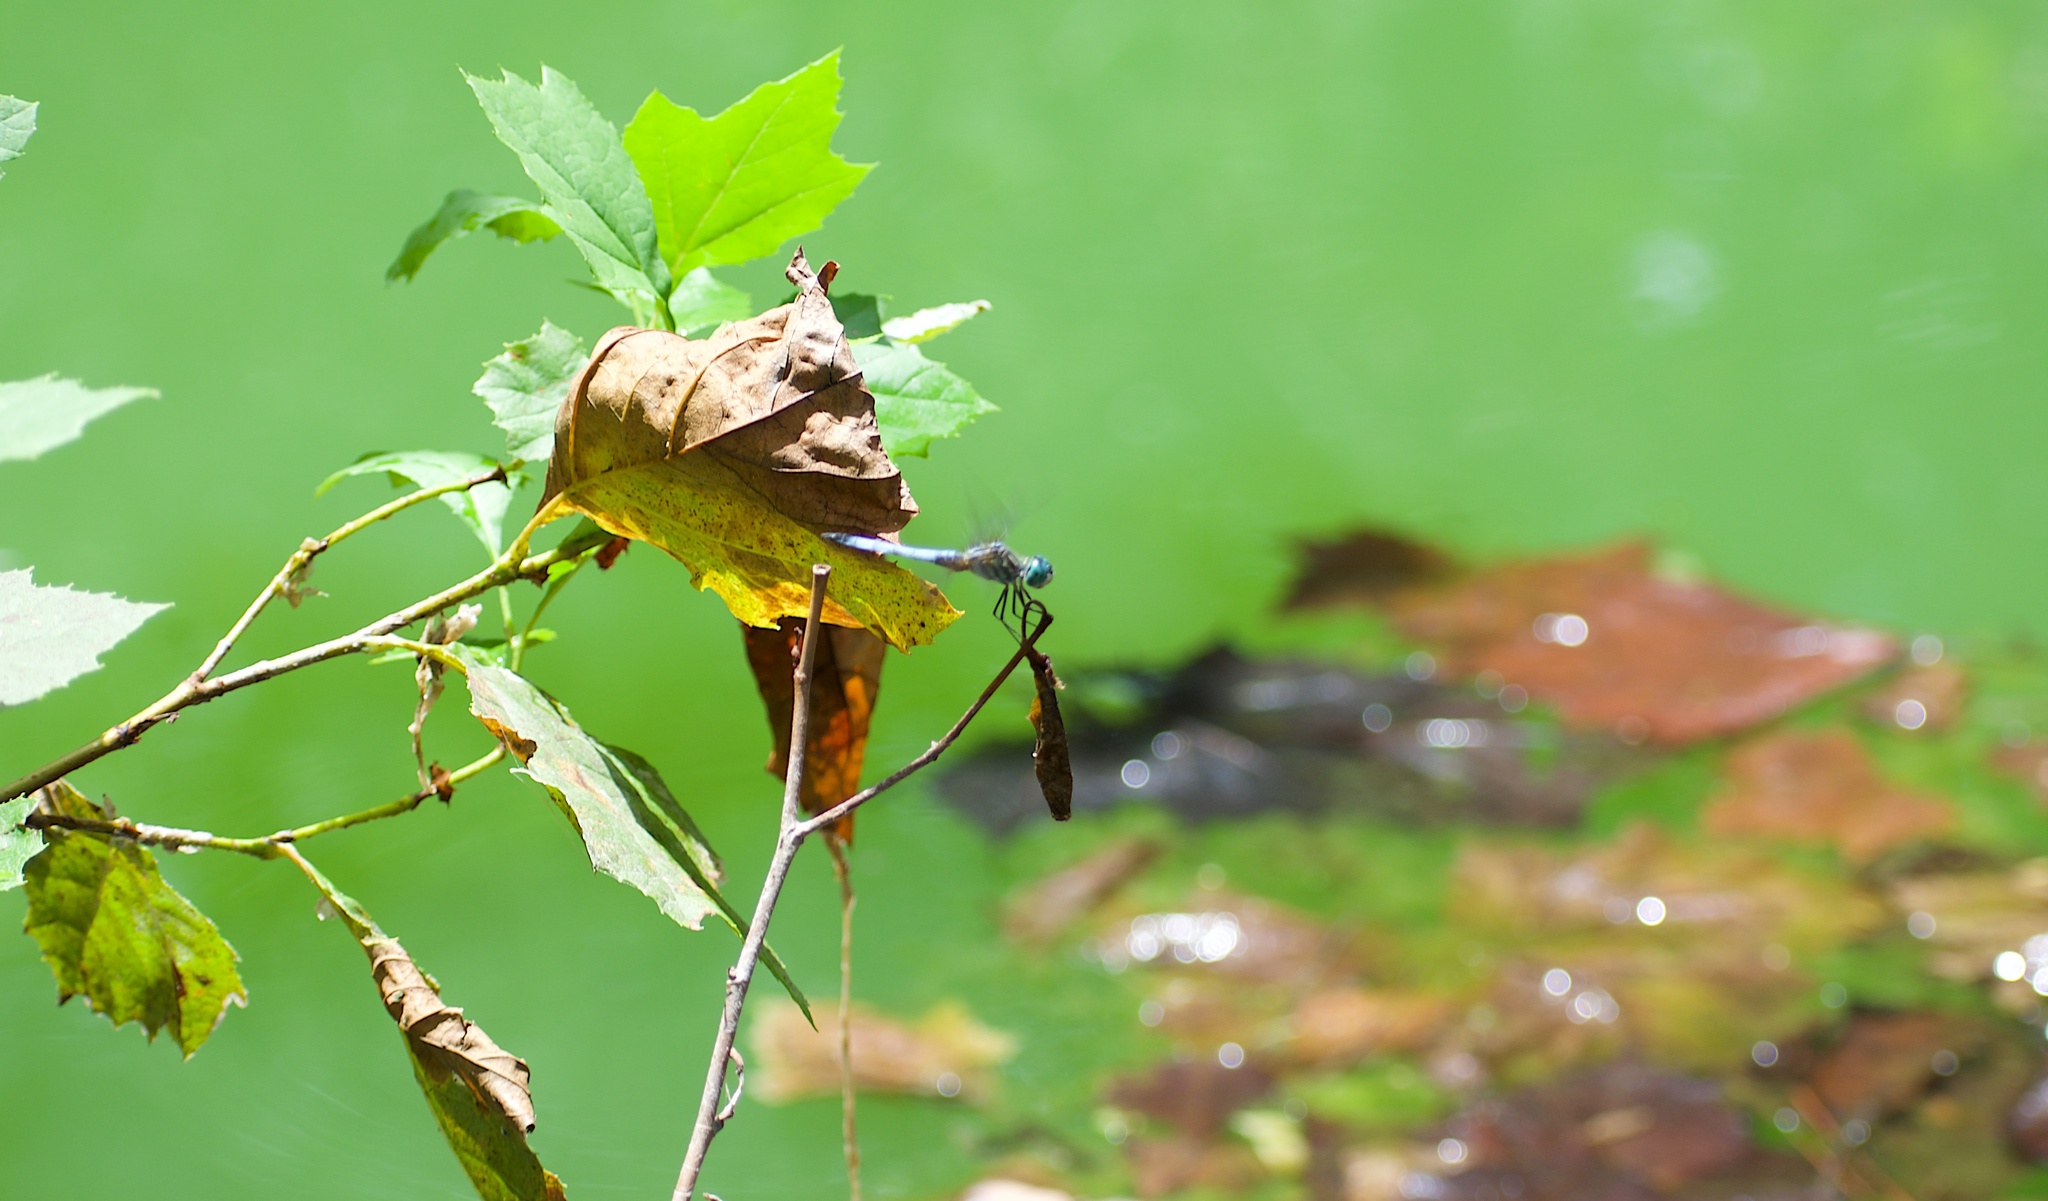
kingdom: Animalia
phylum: Arthropoda
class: Insecta
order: Odonata
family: Libellulidae
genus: Pachydiplax
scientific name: Pachydiplax longipennis
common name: Blue dasher
